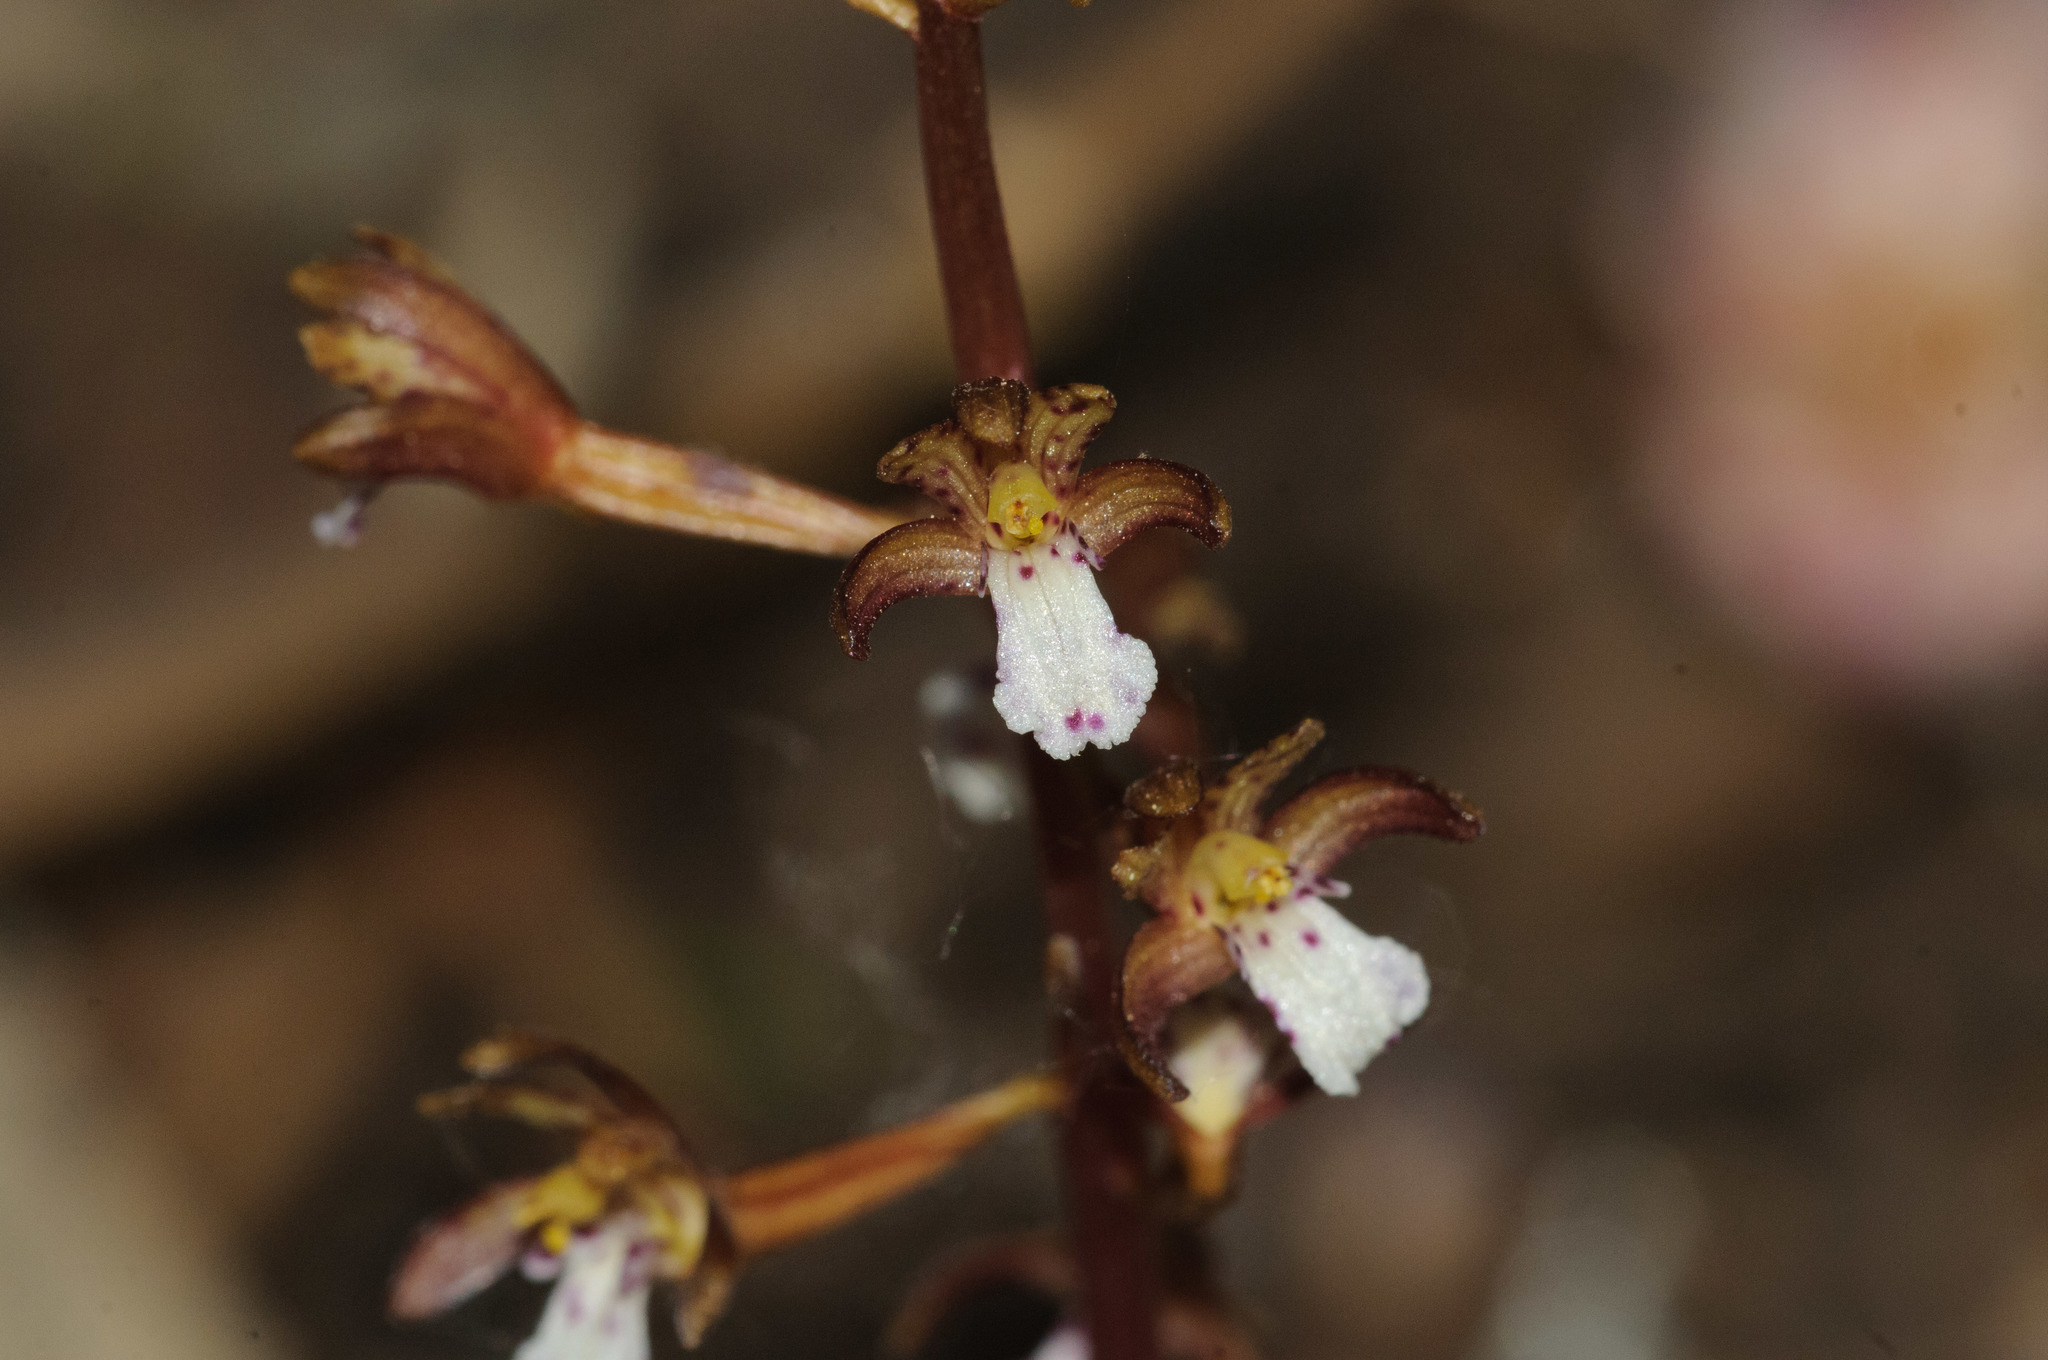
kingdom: Plantae
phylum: Tracheophyta
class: Liliopsida
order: Asparagales
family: Orchidaceae
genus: Corallorhiza
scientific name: Corallorhiza maculata
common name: Spotted coralroot
